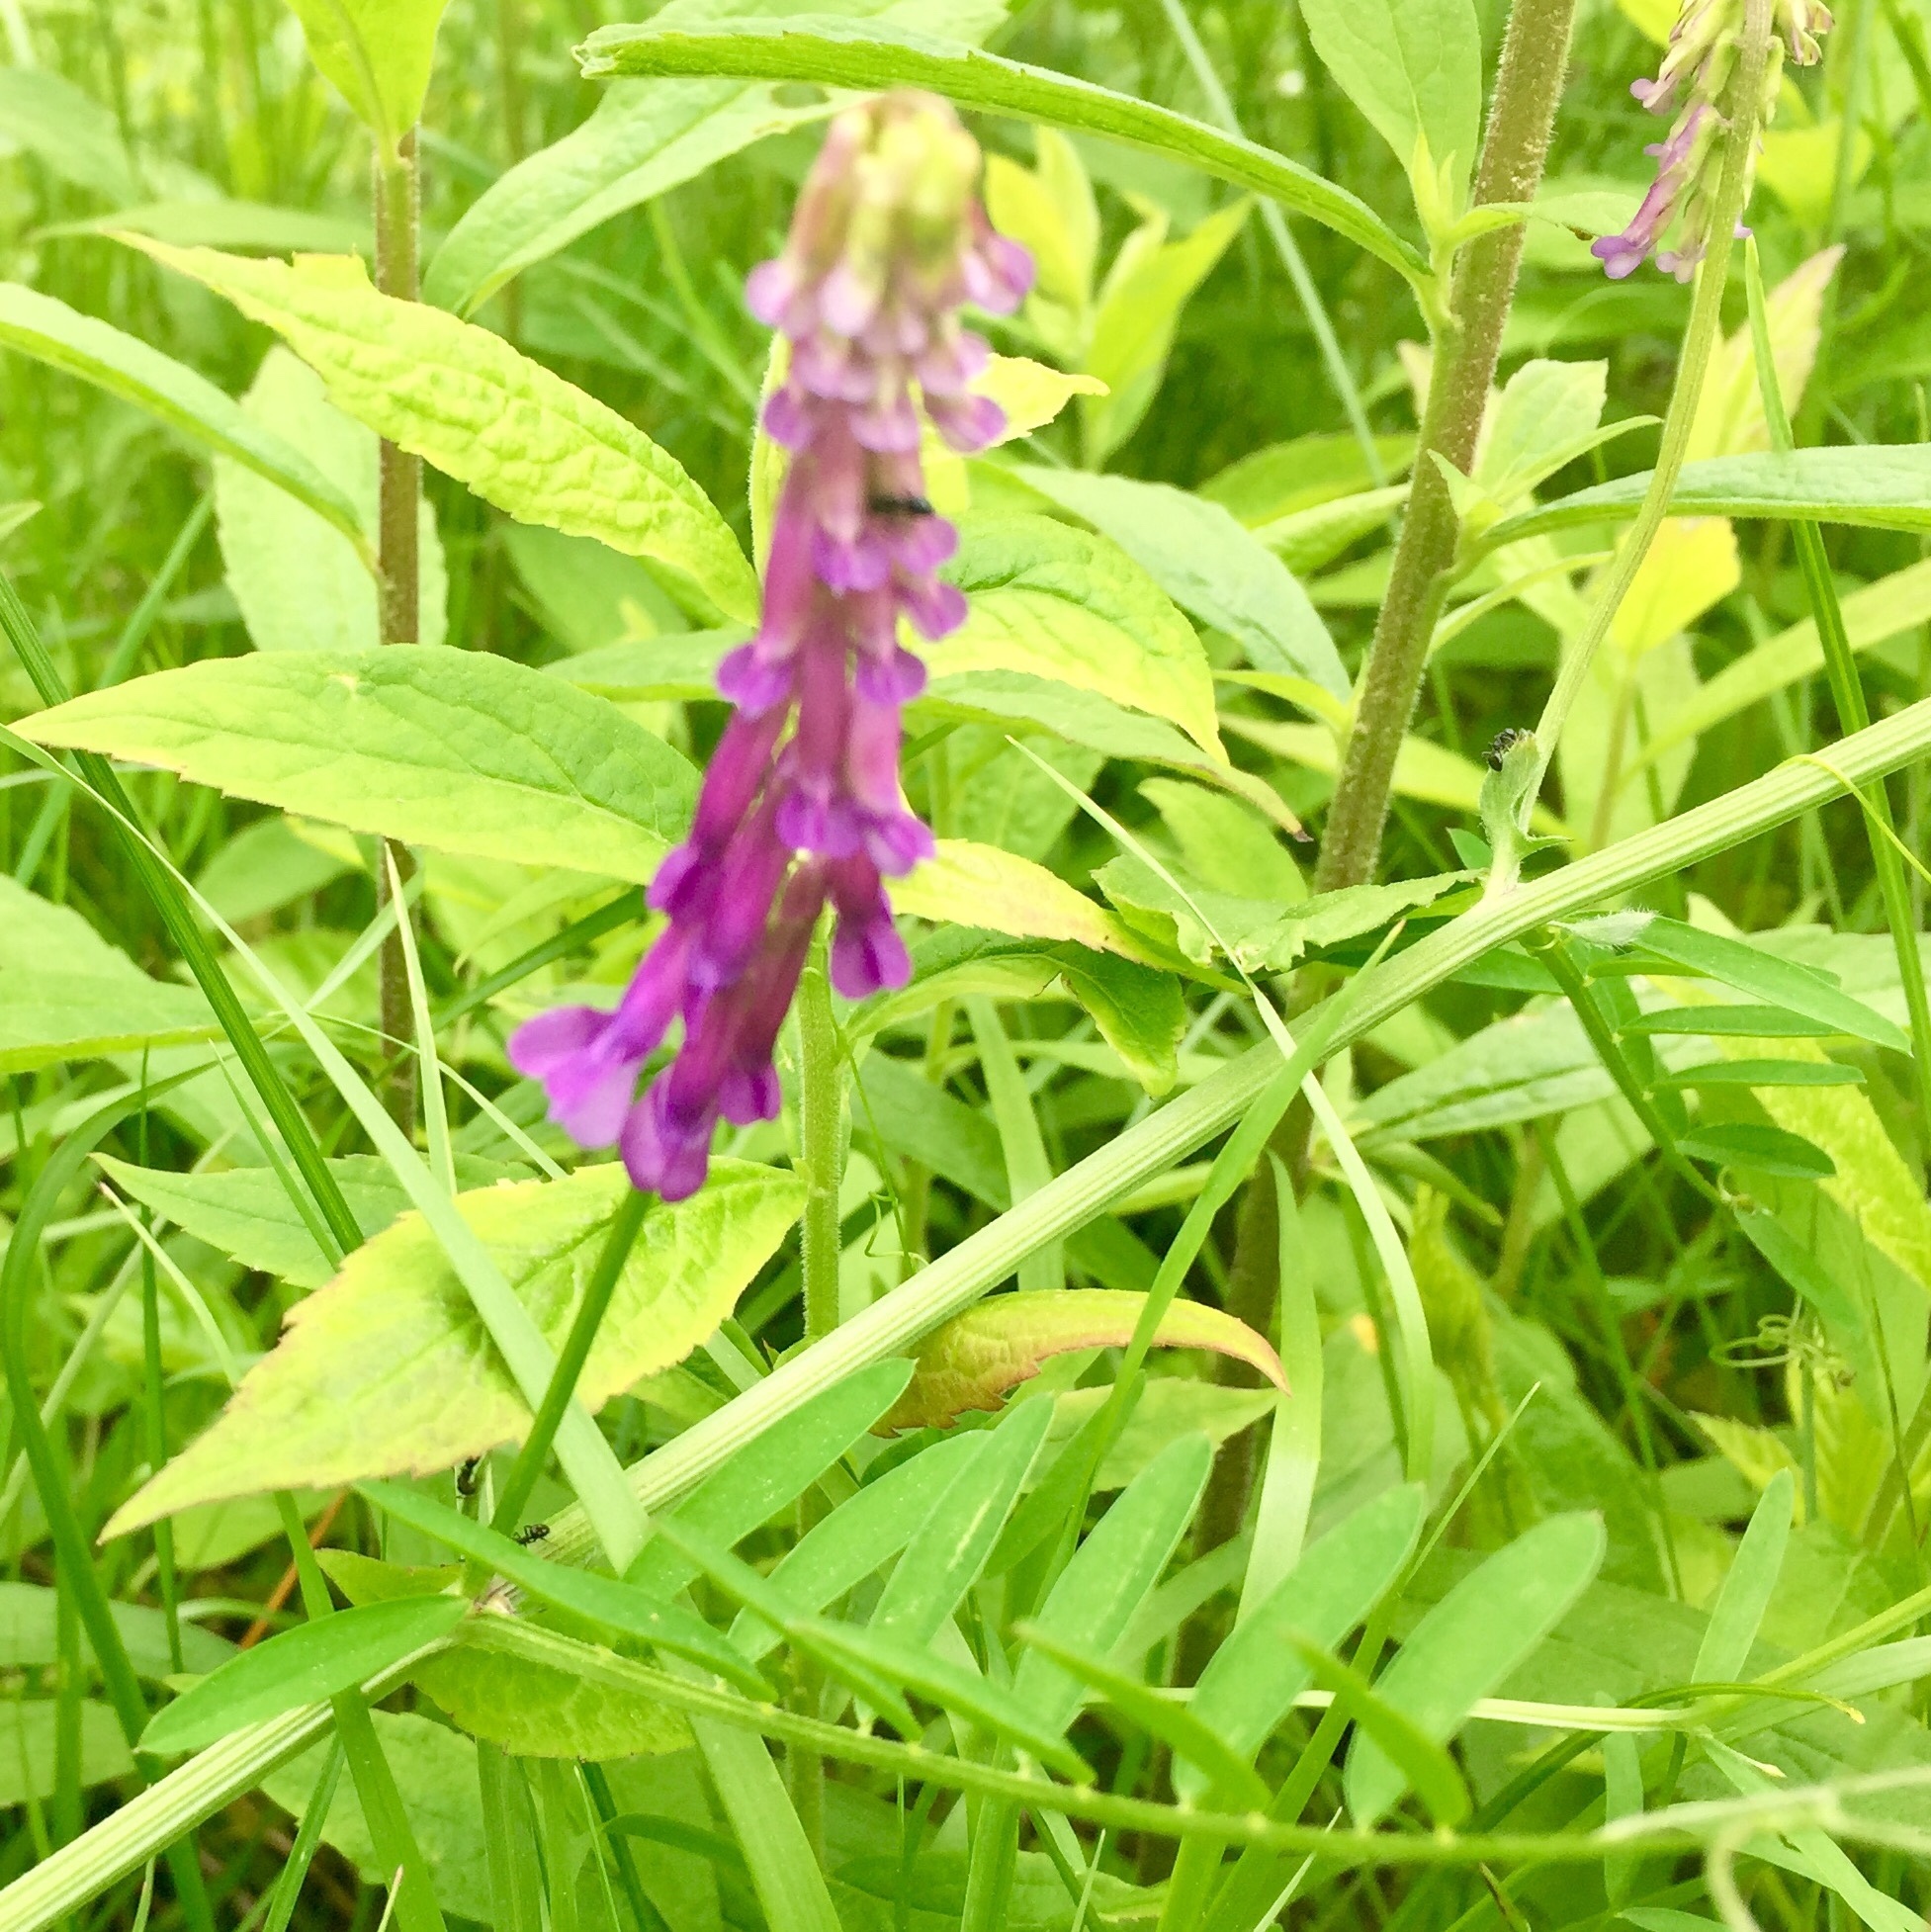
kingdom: Plantae
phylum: Tracheophyta
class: Magnoliopsida
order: Fabales
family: Fabaceae
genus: Vicia
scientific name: Vicia cracca
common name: Bird vetch
